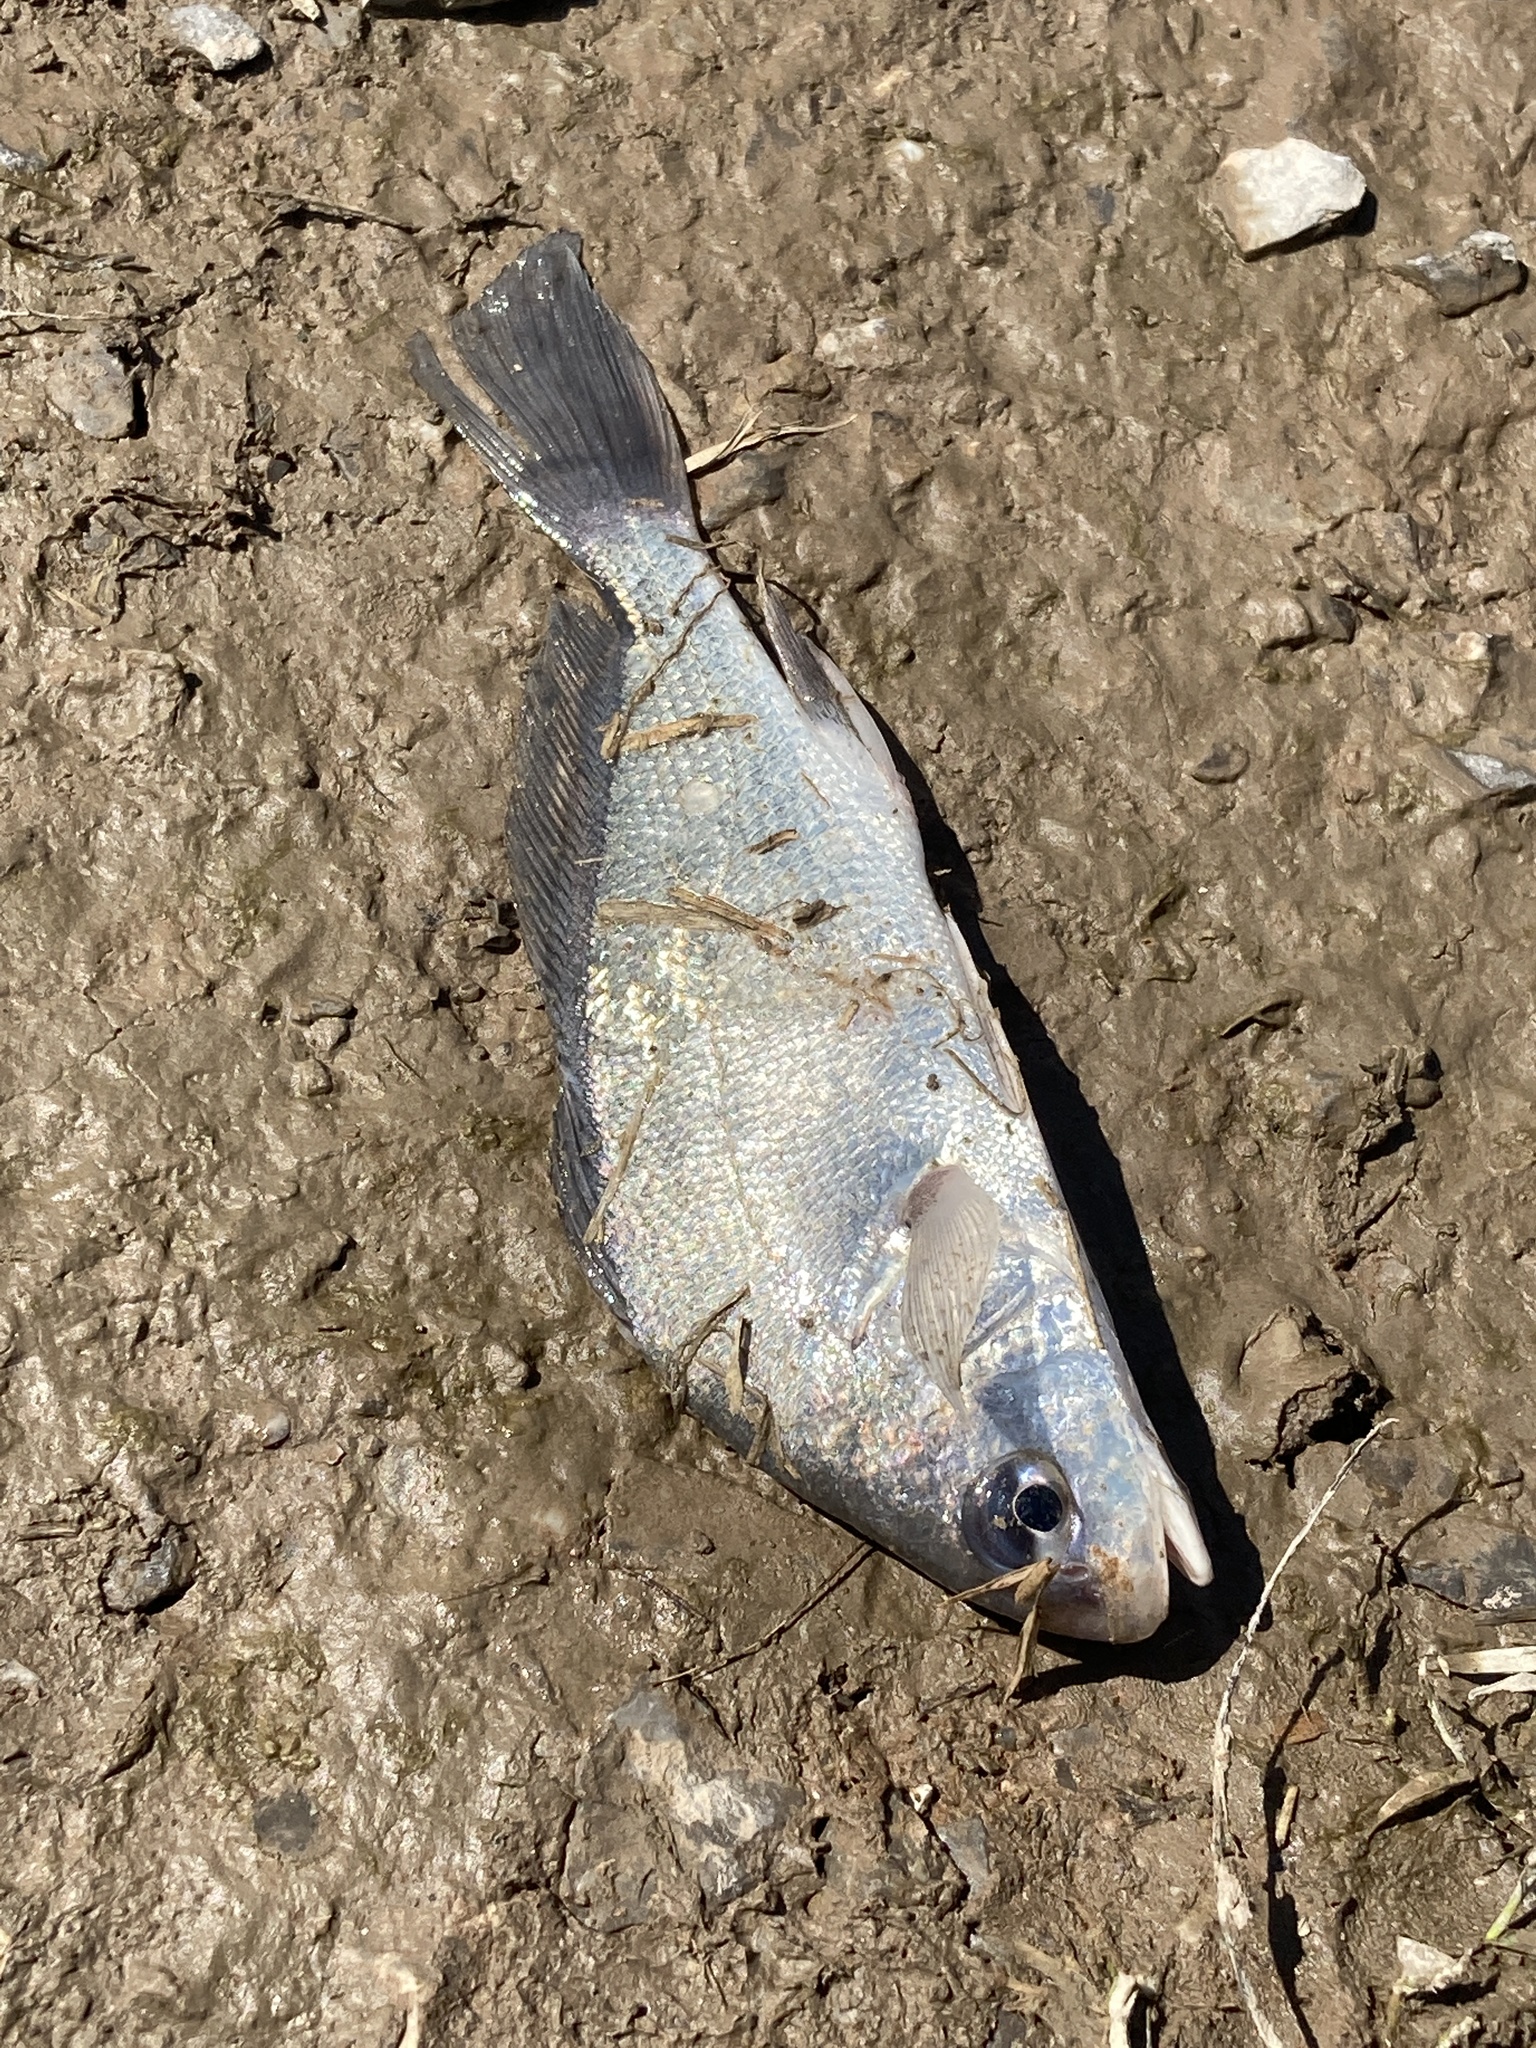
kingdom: Animalia
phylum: Chordata
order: Perciformes
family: Sciaenidae
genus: Aplodinotus
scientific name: Aplodinotus grunniens
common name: Freshwater drum
